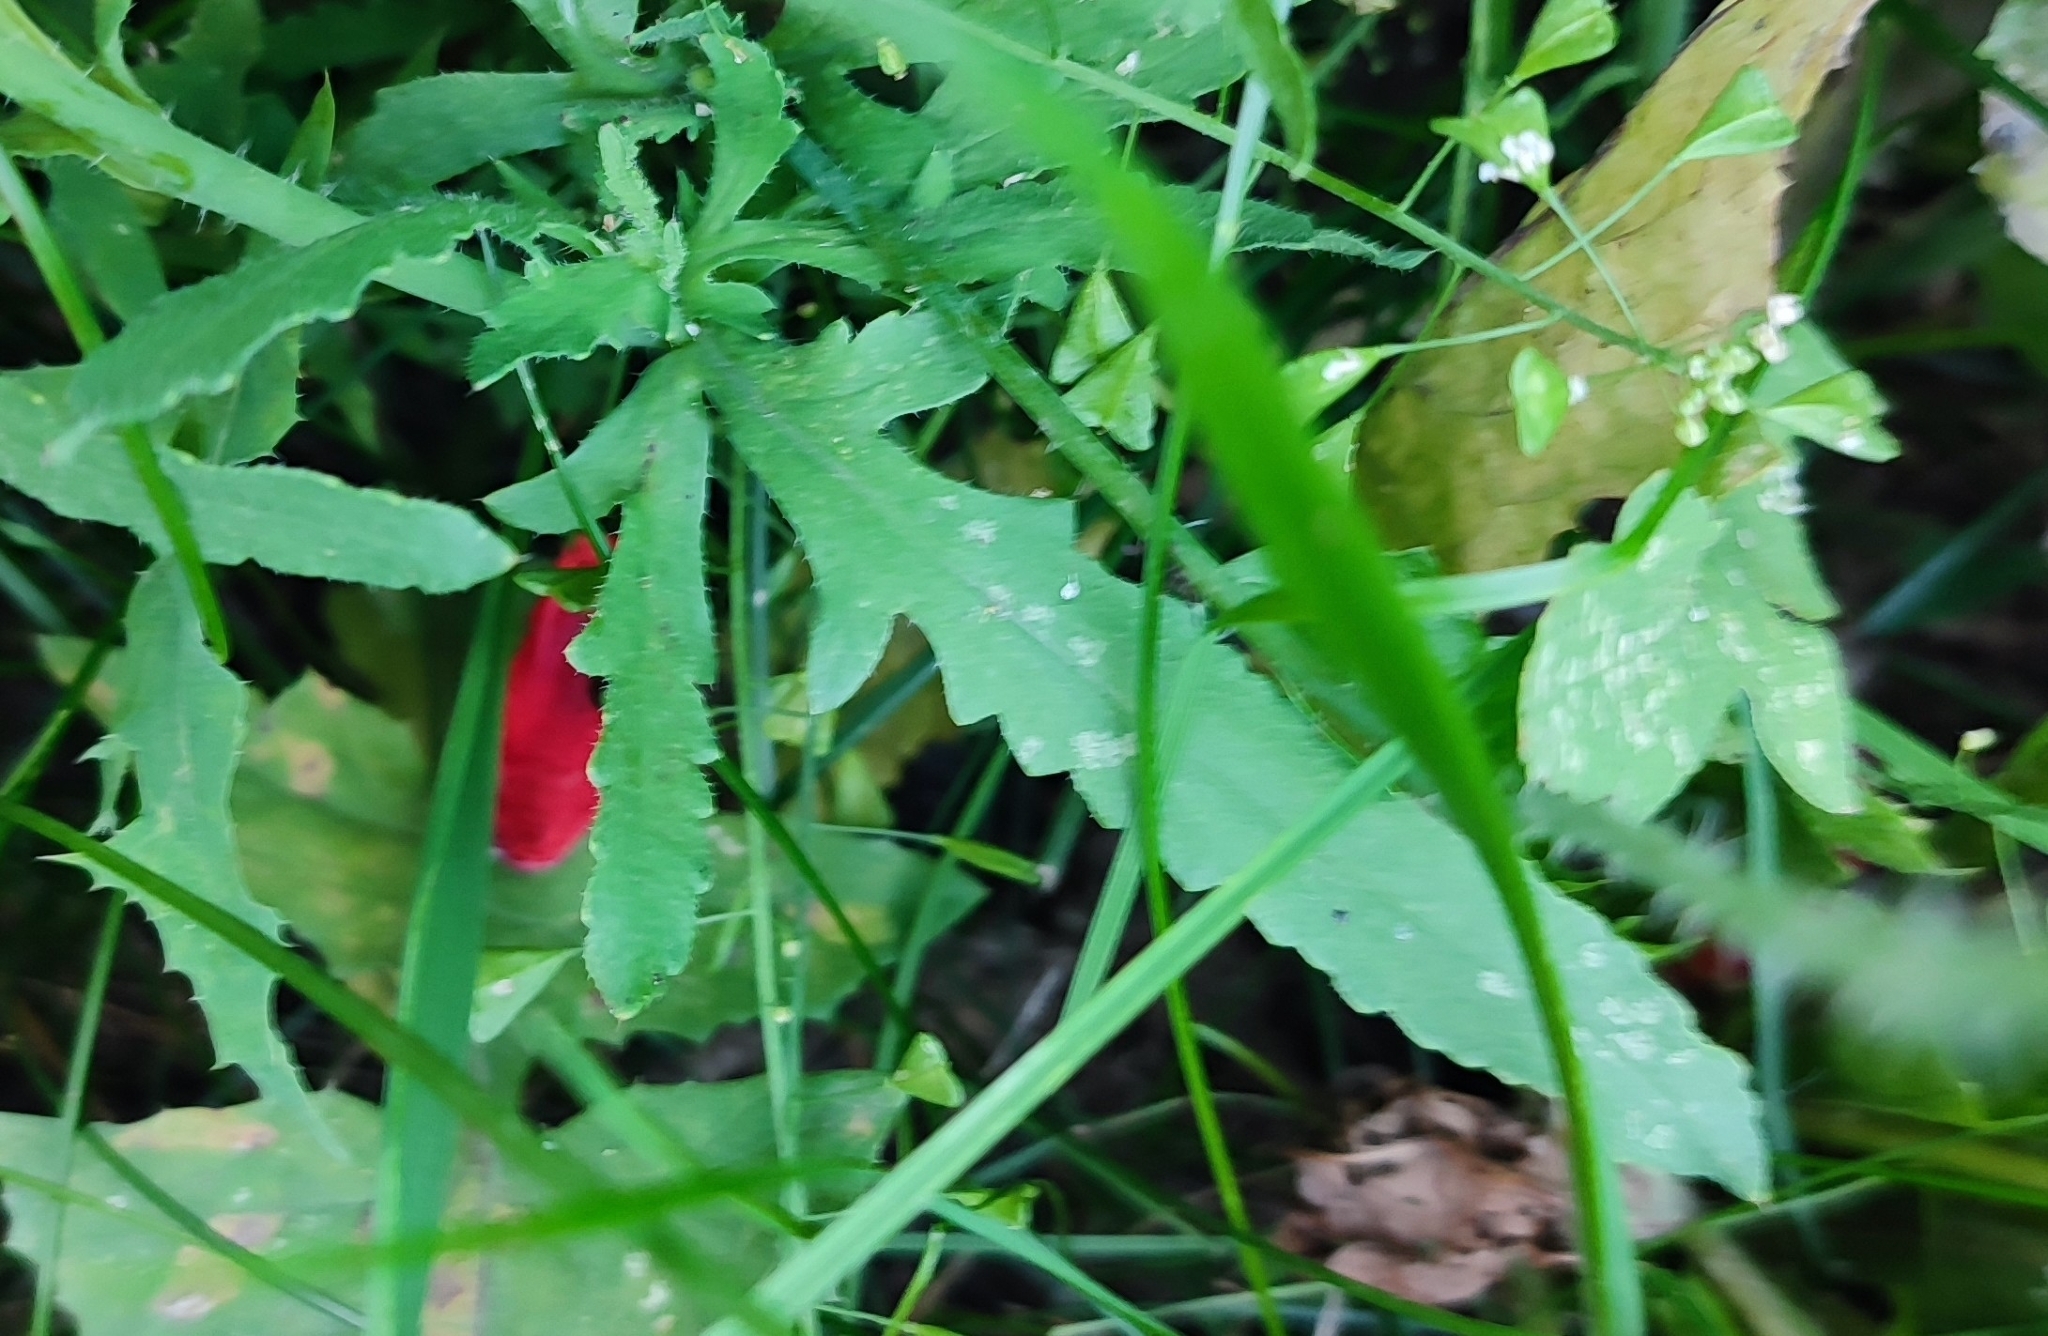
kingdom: Plantae
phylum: Tracheophyta
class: Magnoliopsida
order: Ranunculales
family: Papaveraceae
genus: Papaver
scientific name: Papaver rhoeas
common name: Corn poppy
